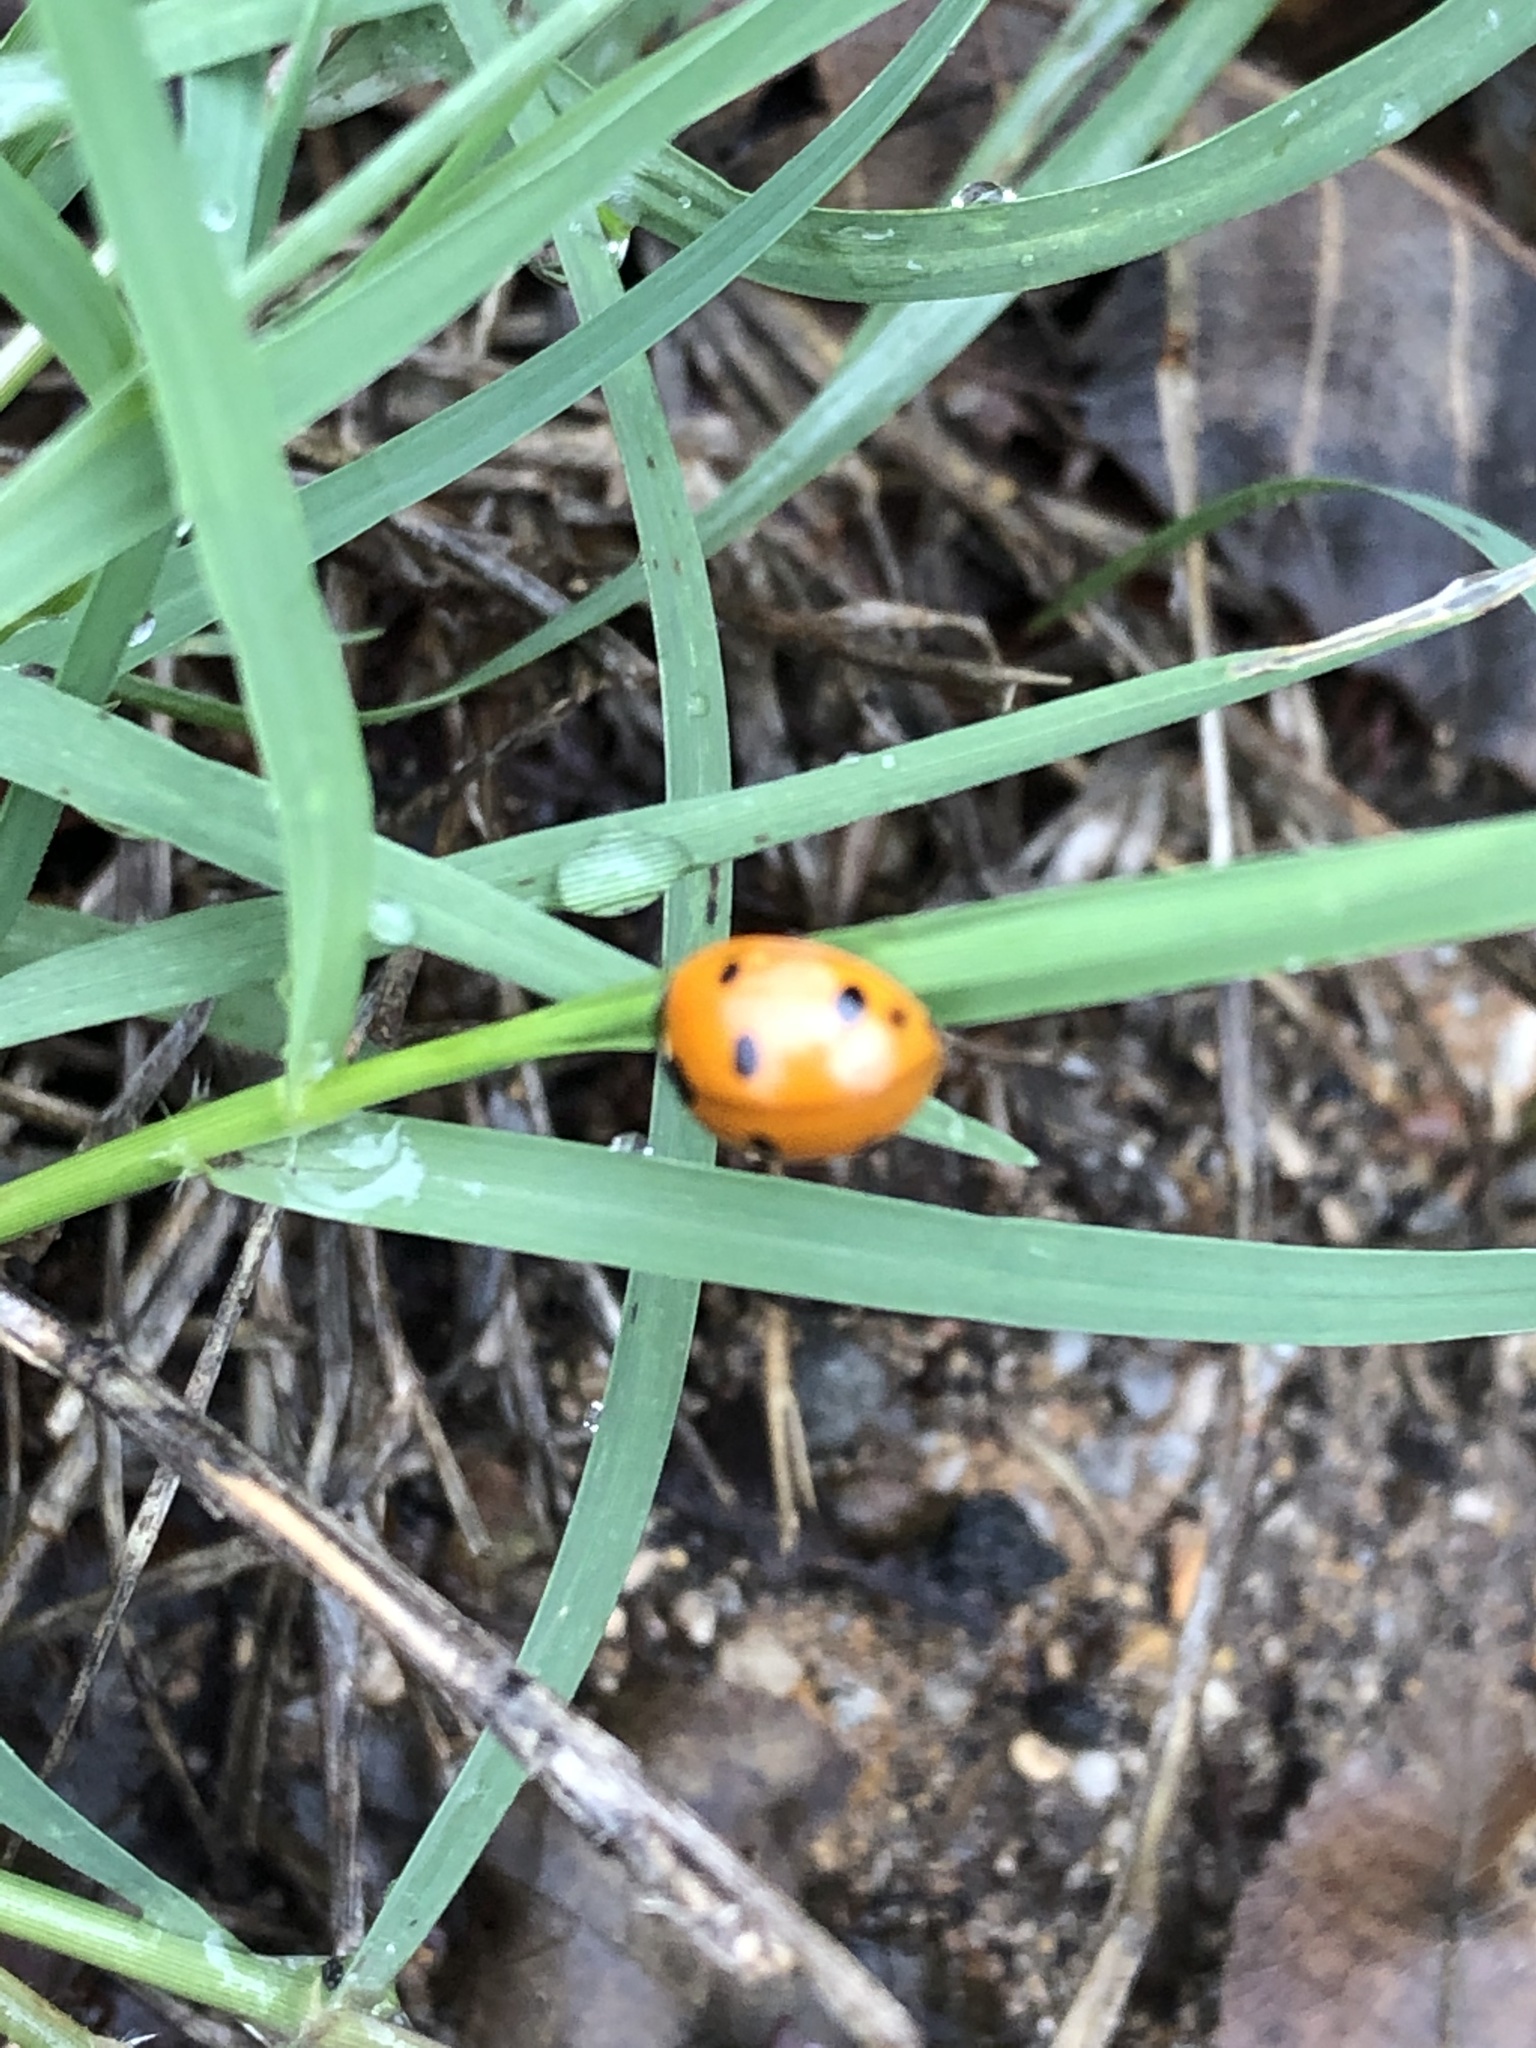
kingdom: Animalia
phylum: Arthropoda
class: Insecta
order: Coleoptera
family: Coccinellidae
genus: Coccinella
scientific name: Coccinella septempunctata
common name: Sevenspotted lady beetle
